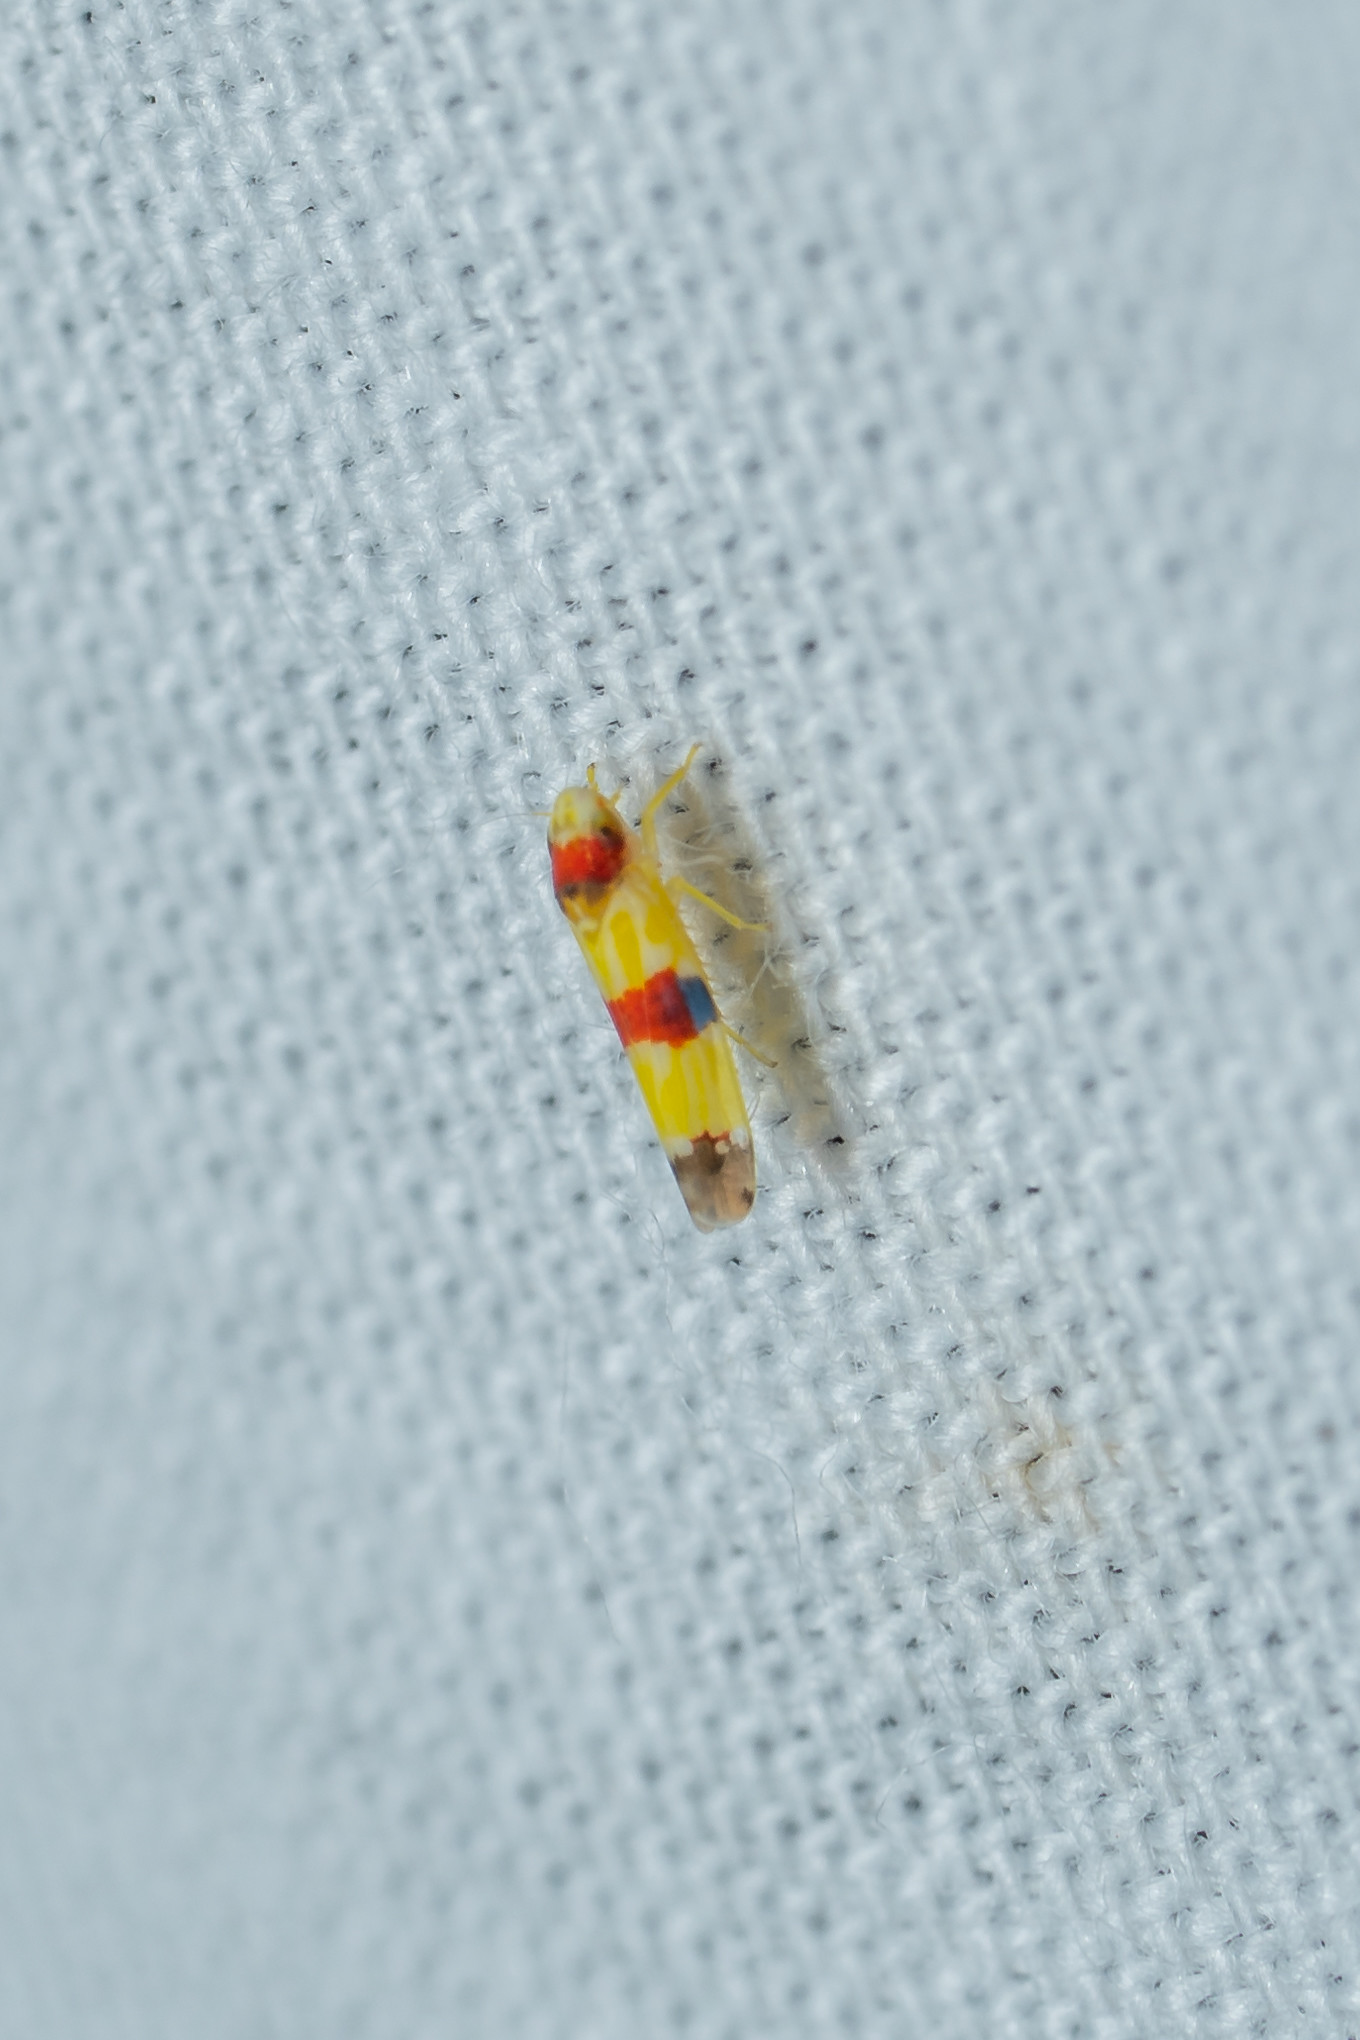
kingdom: Animalia
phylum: Arthropoda
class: Insecta
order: Hemiptera
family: Cicadellidae
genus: Erythroneura
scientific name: Erythroneura diva
